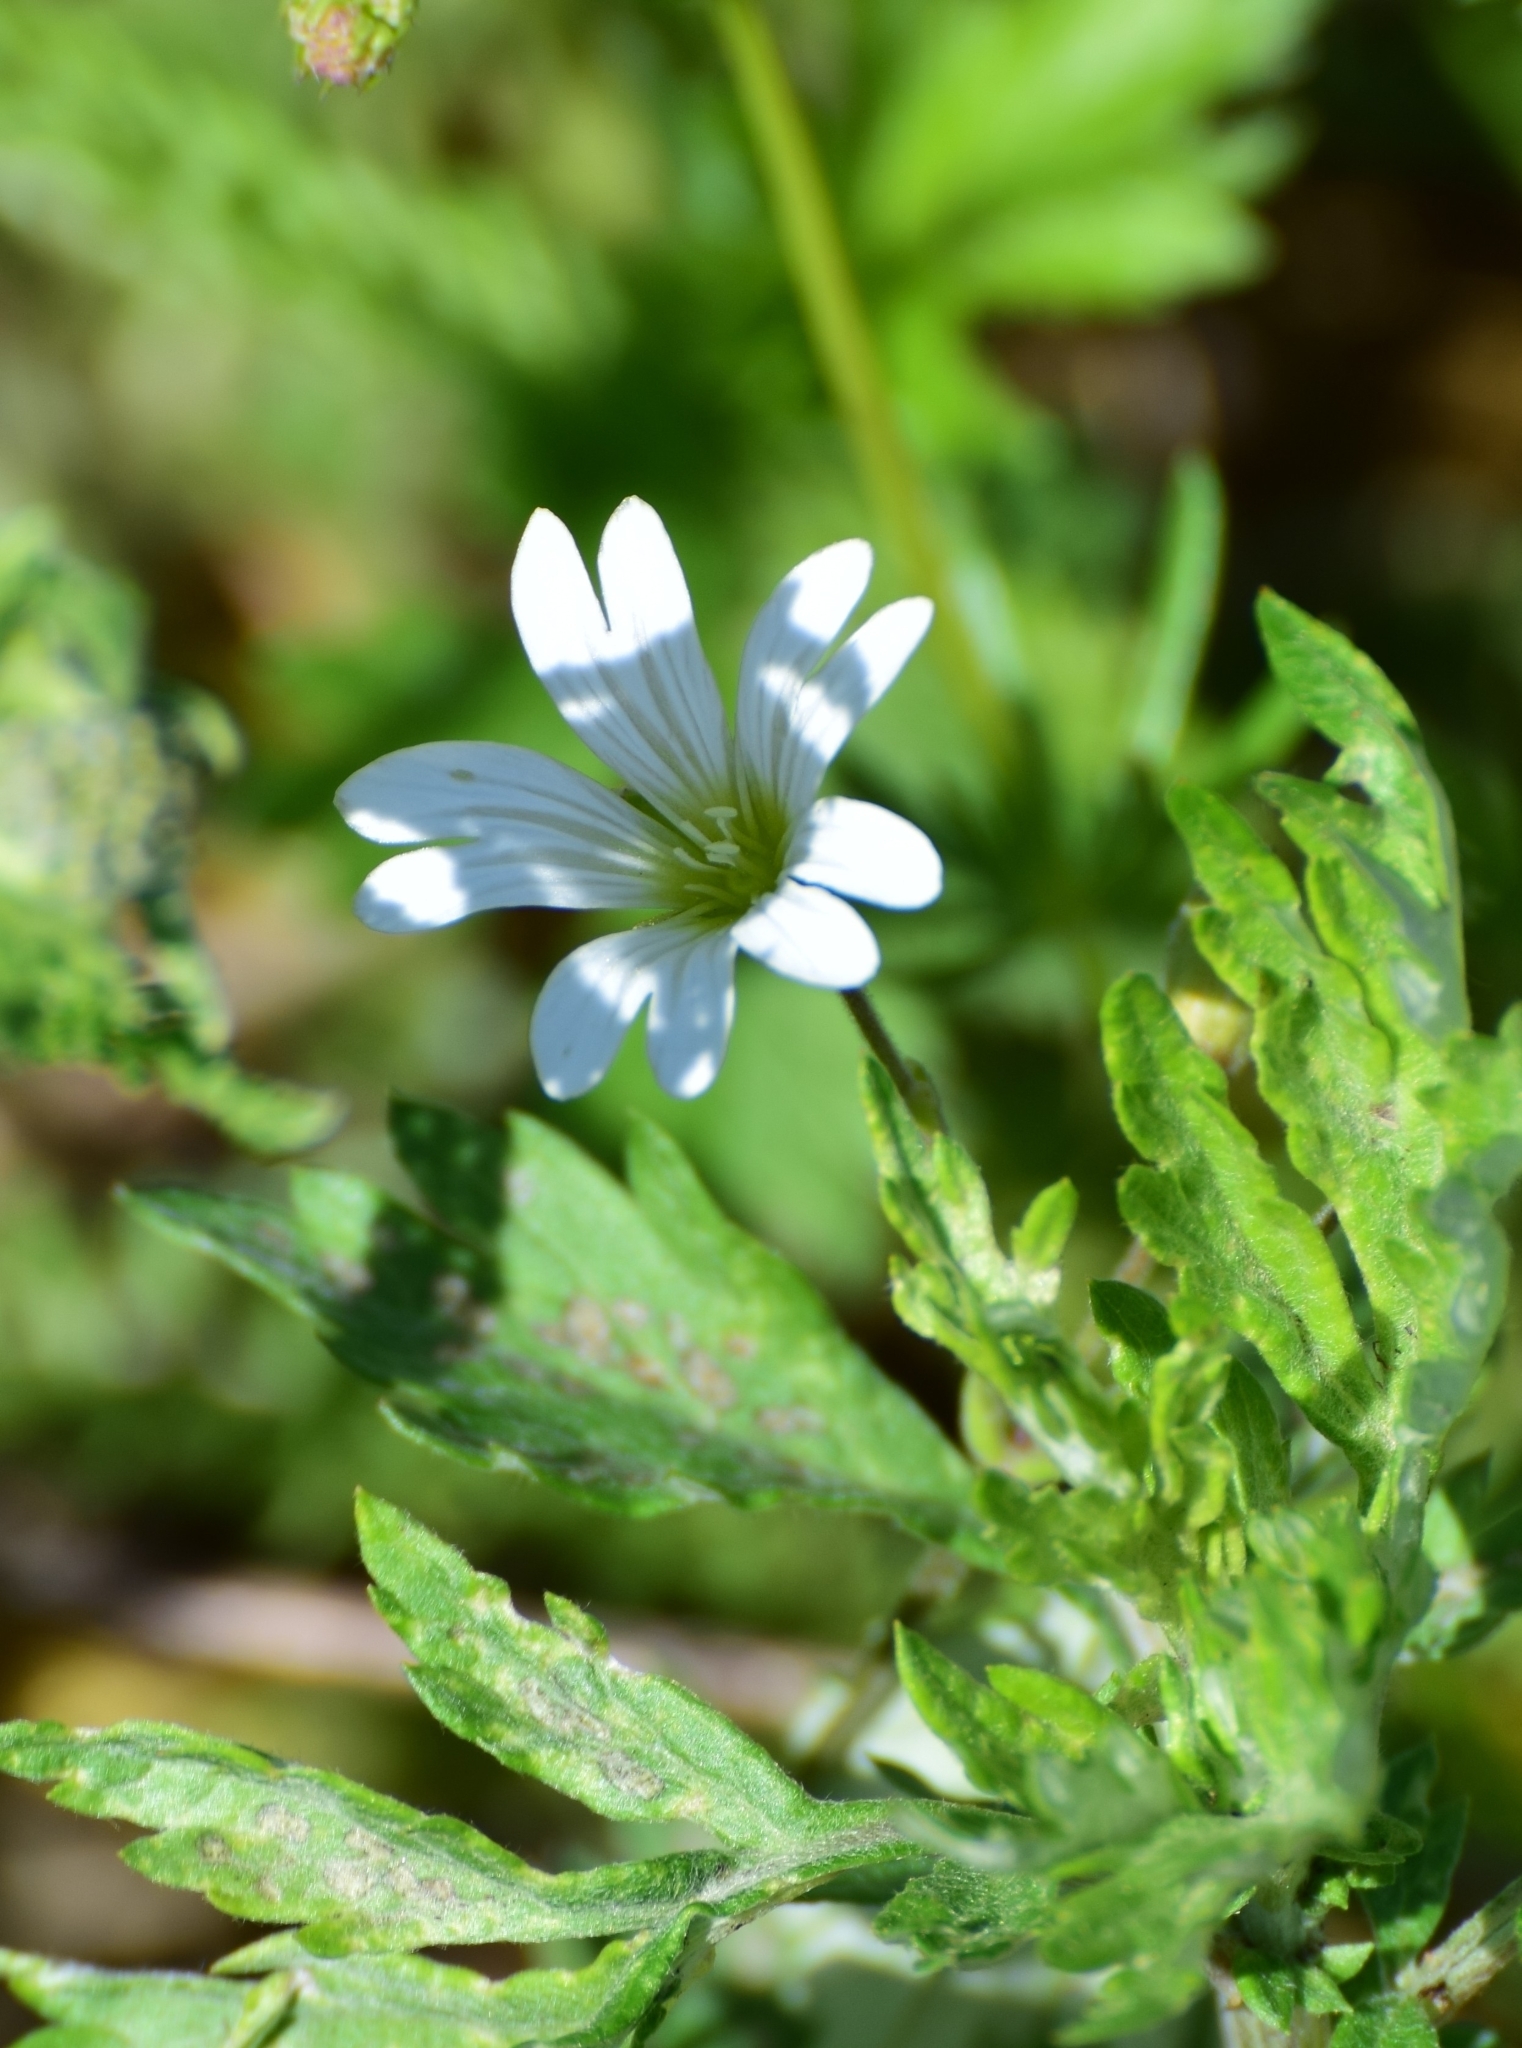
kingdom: Plantae
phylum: Tracheophyta
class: Magnoliopsida
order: Caryophyllales
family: Caryophyllaceae
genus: Cerastium
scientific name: Cerastium arvense
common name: Field mouse-ear
